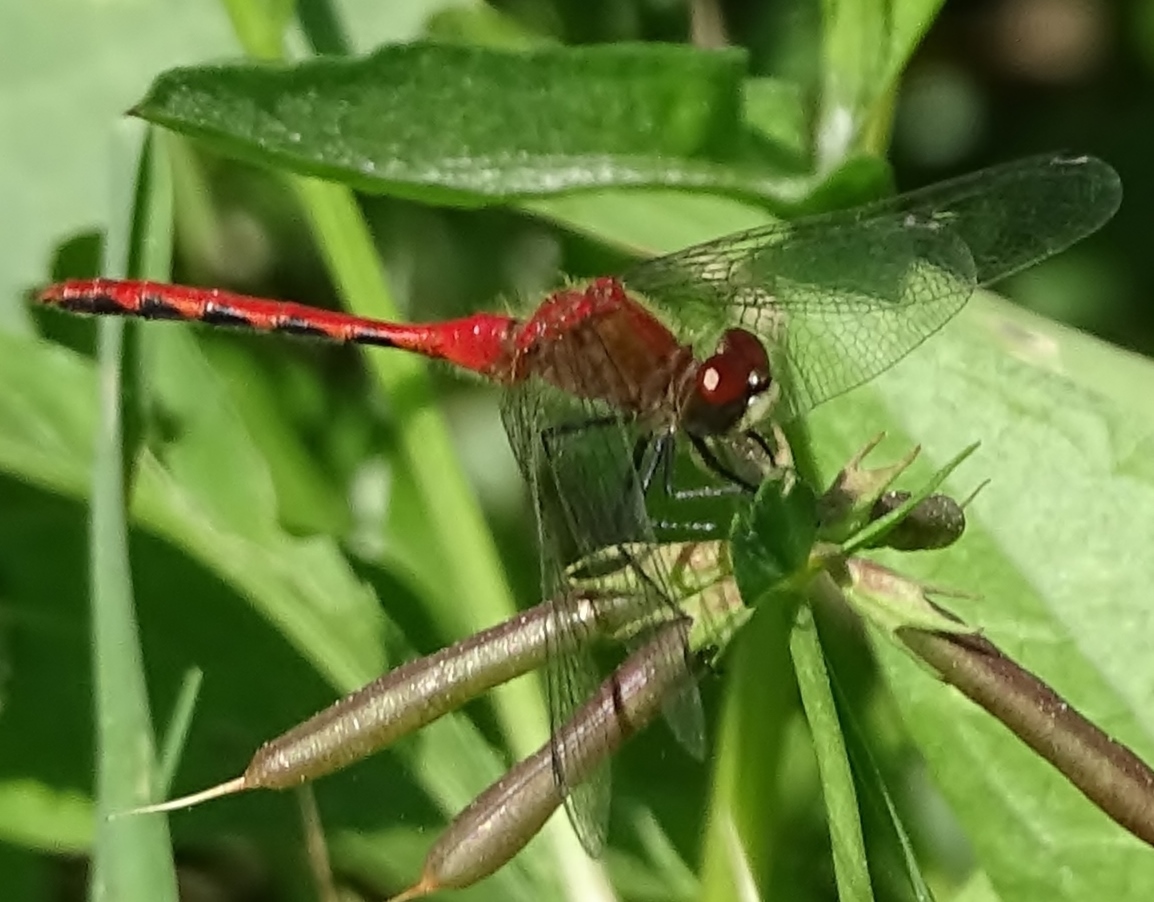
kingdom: Animalia
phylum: Arthropoda
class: Insecta
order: Odonata
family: Libellulidae
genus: Sympetrum
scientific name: Sympetrum obtrusum
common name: White-faced meadowhawk
